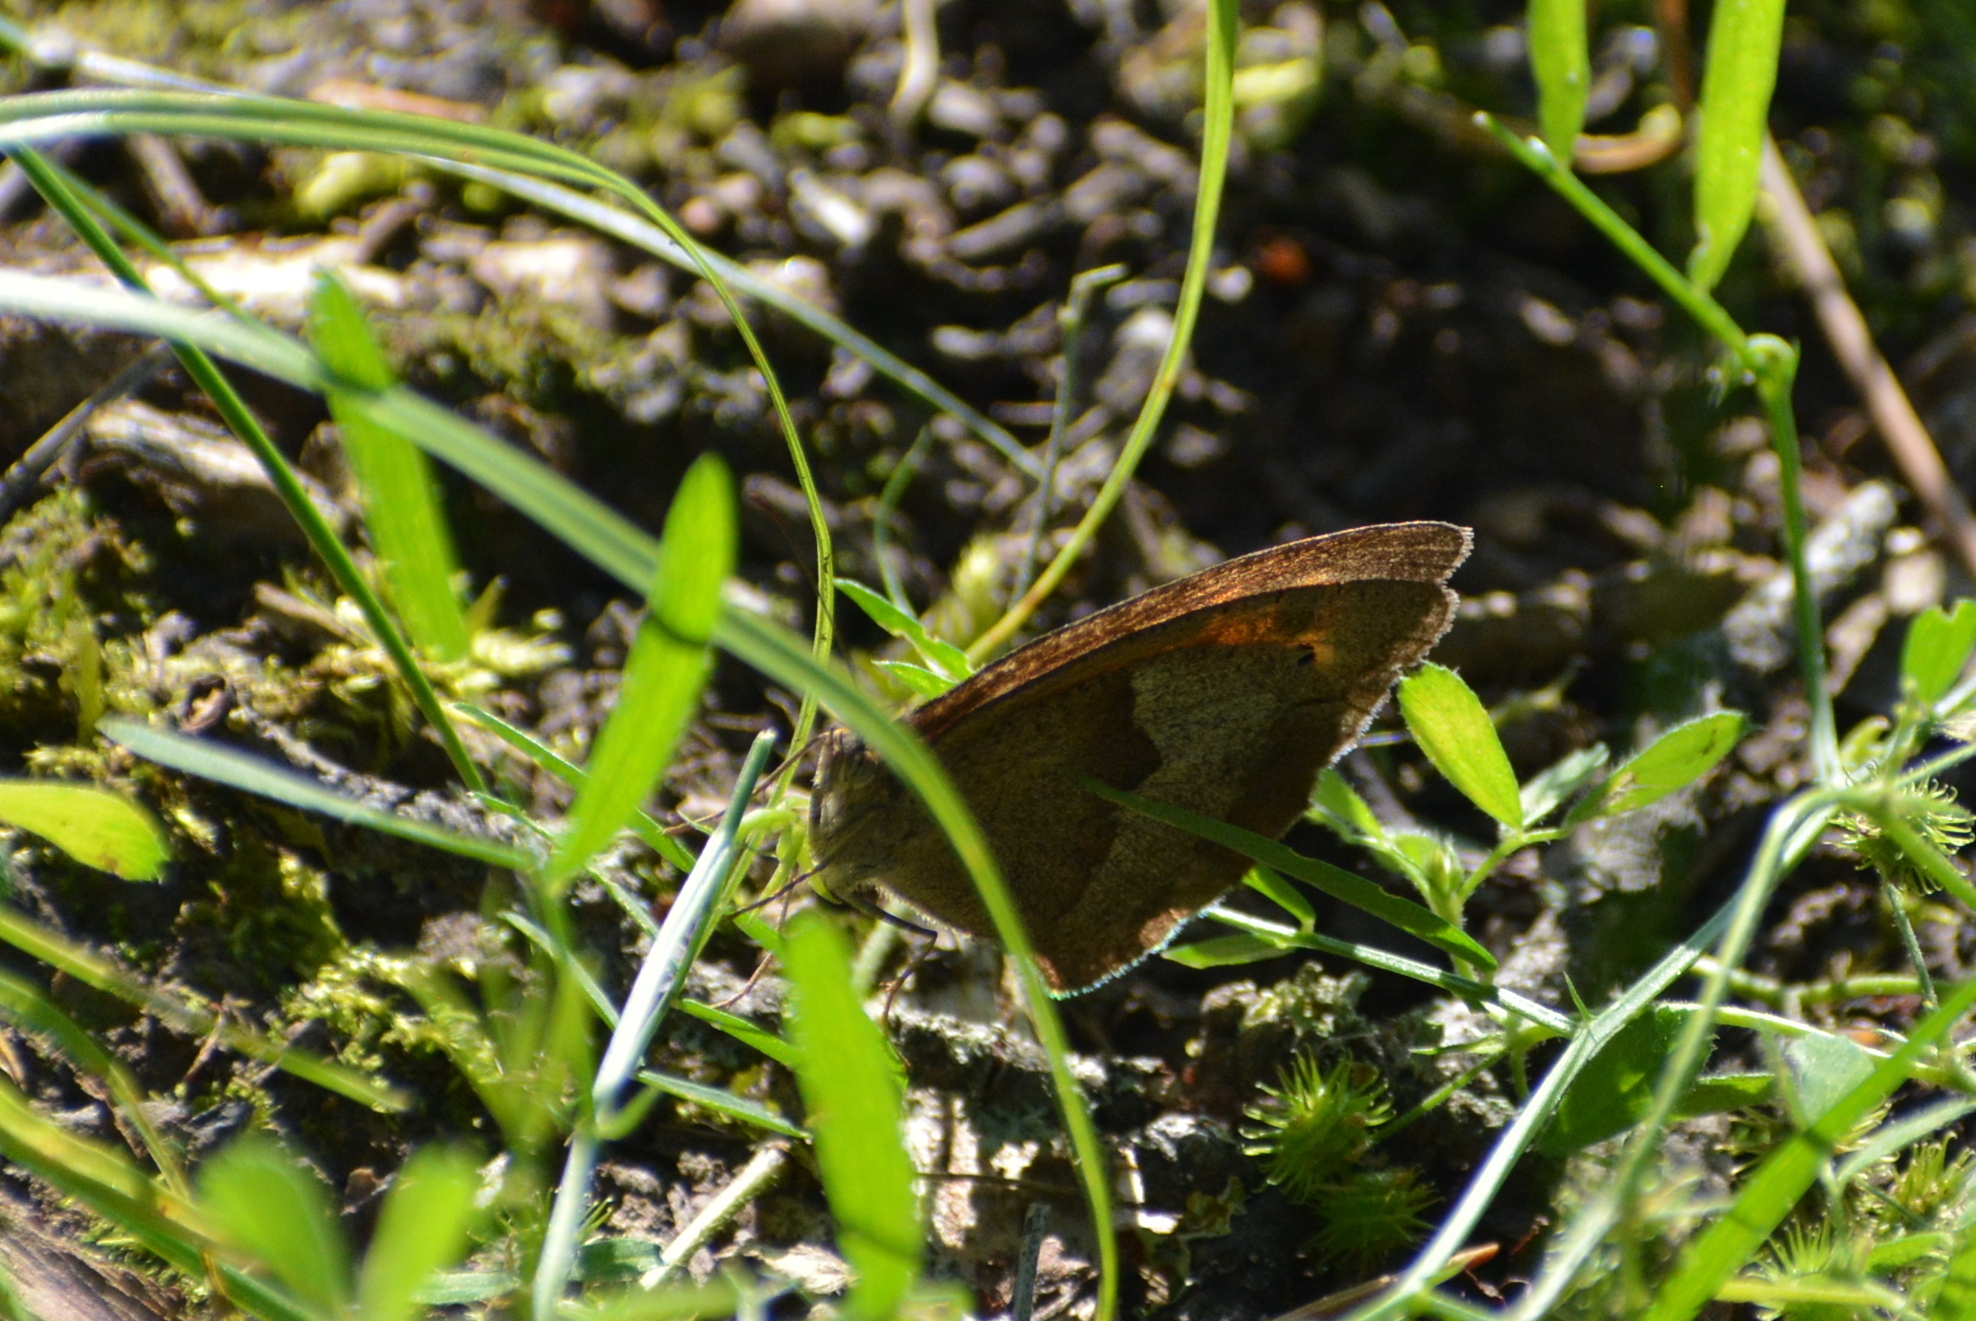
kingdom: Animalia
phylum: Arthropoda
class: Insecta
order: Lepidoptera
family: Nymphalidae
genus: Maniola
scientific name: Maniola jurtina
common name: Meadow brown
